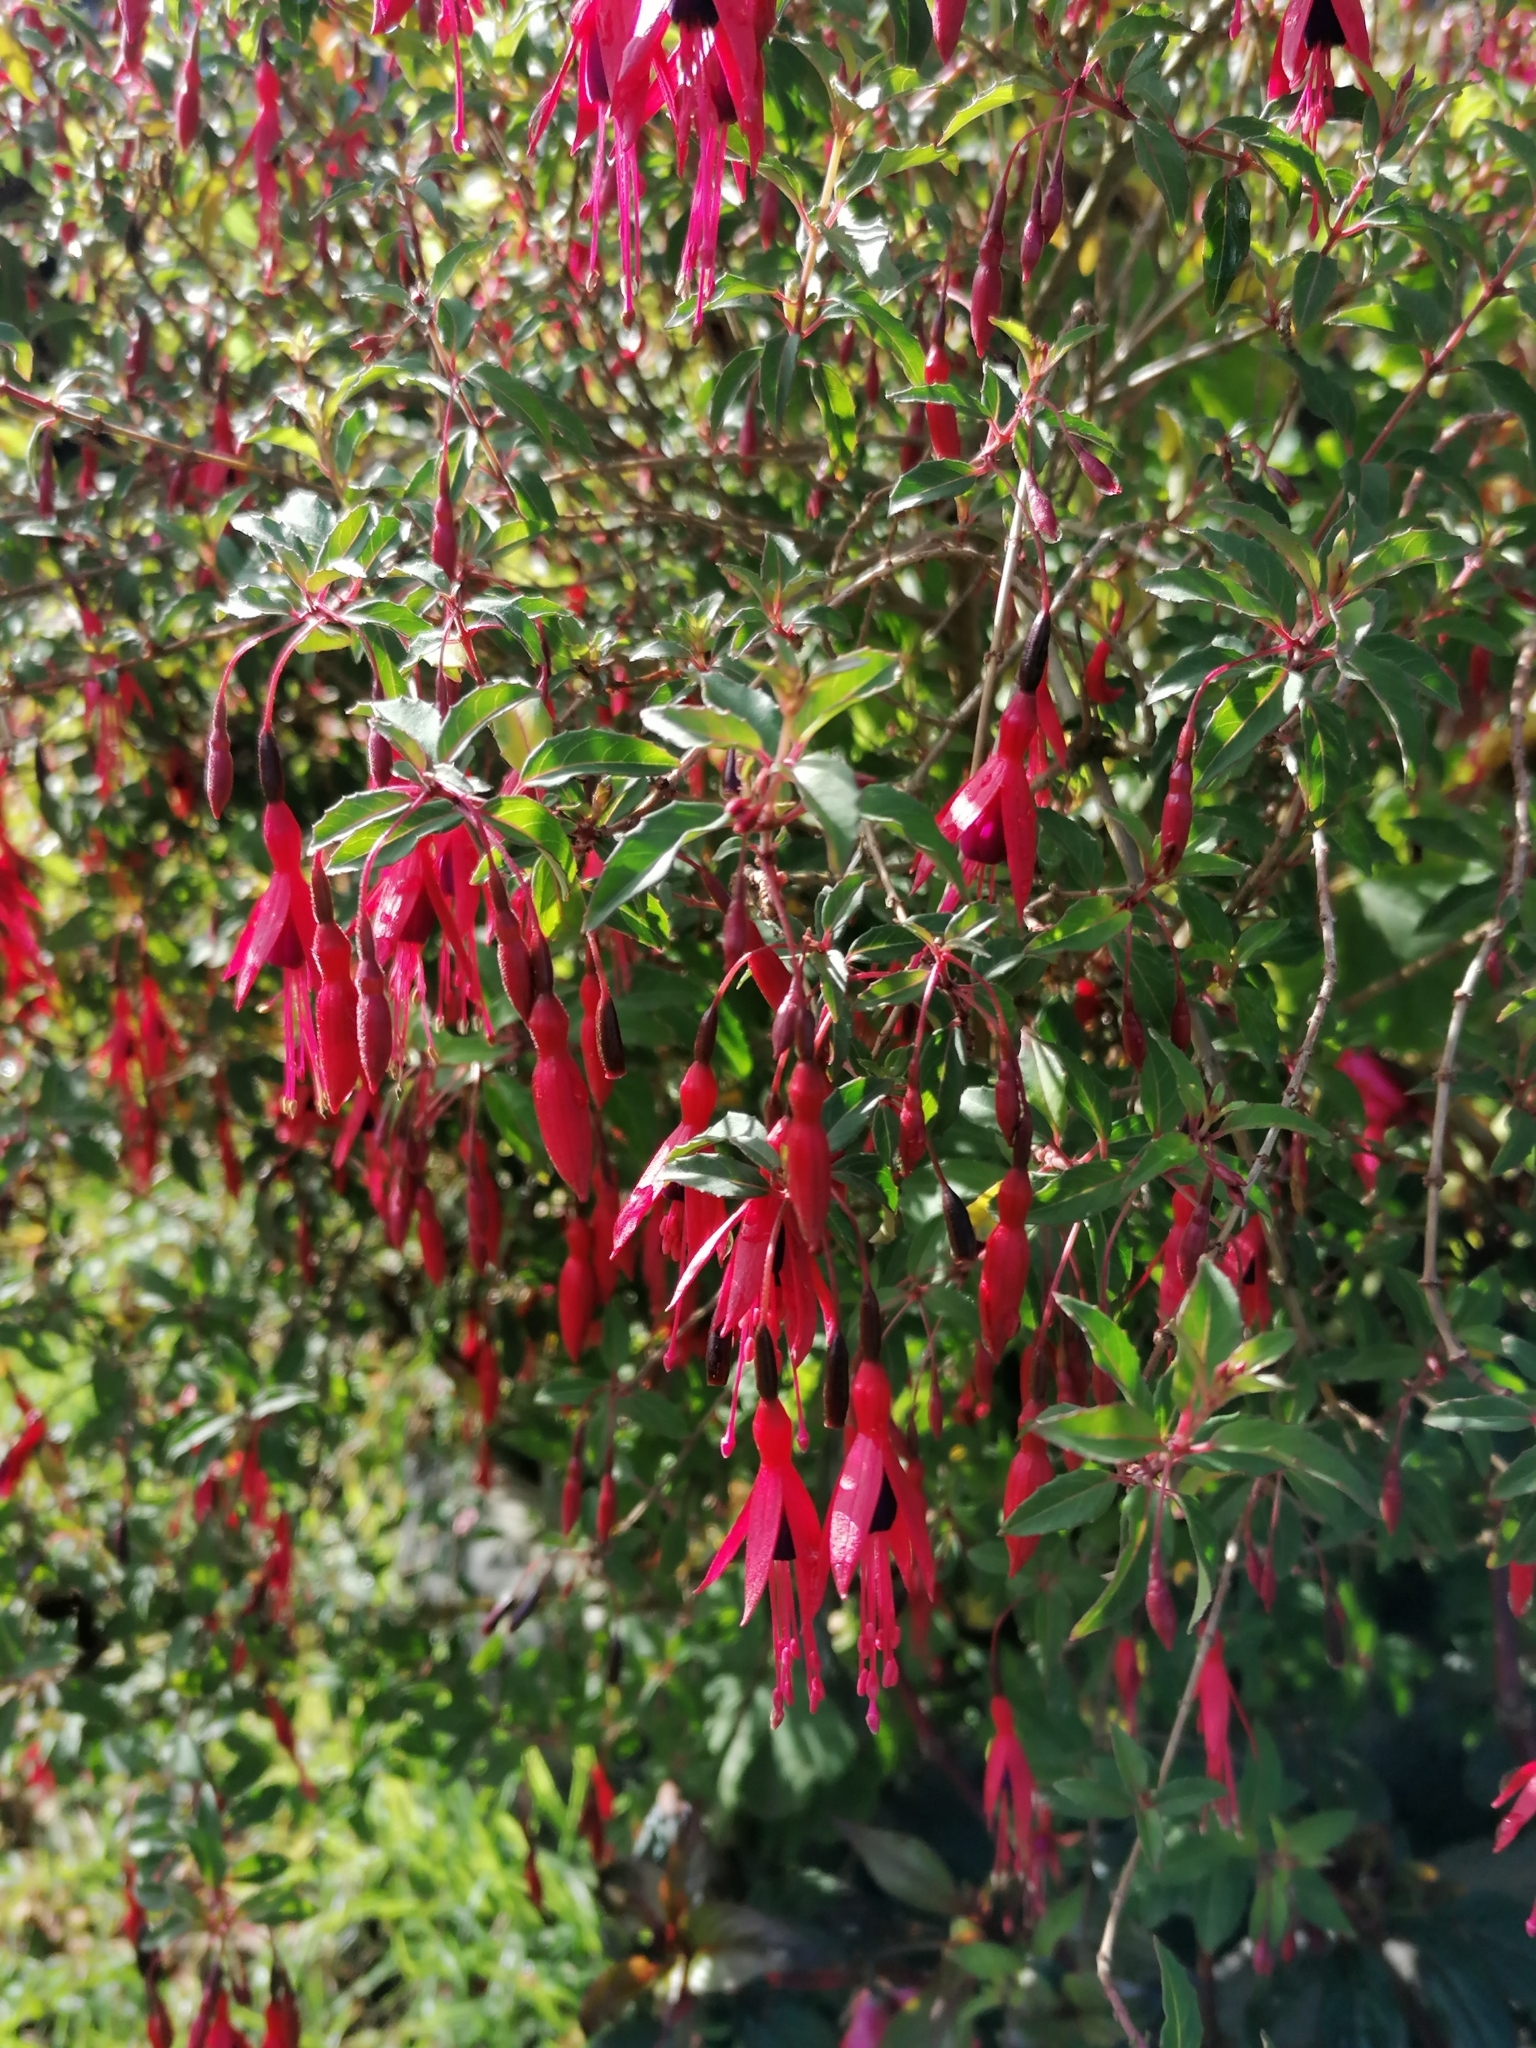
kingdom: Plantae
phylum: Tracheophyta
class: Magnoliopsida
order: Myrtales
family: Onagraceae
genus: Fuchsia
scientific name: Fuchsia magellanica
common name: Hardy fuchsia
